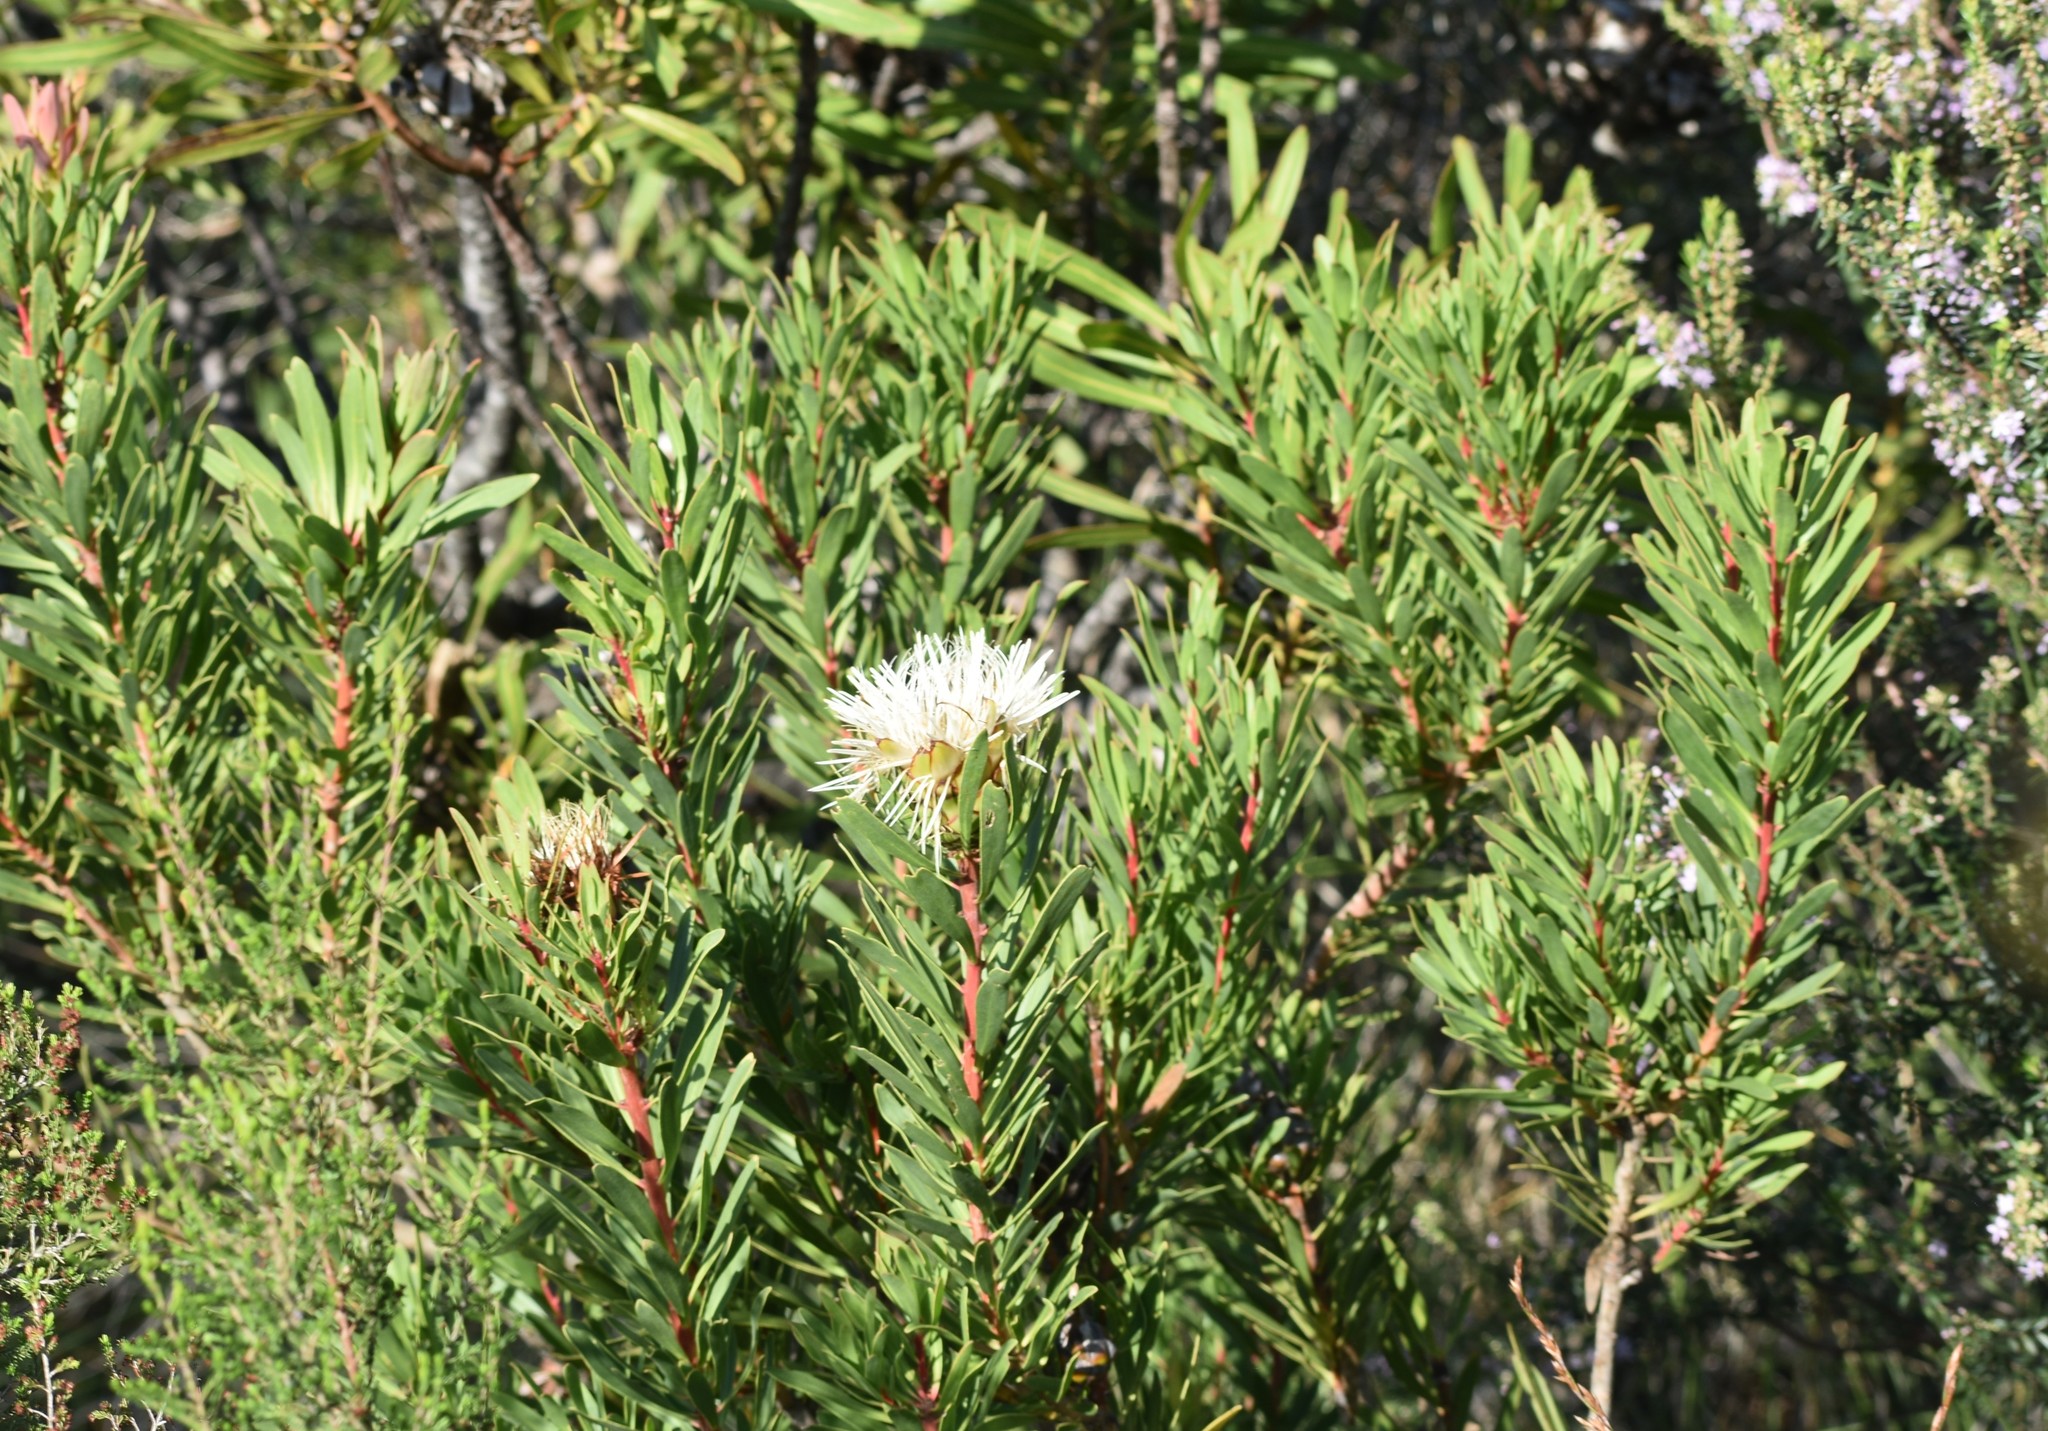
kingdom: Plantae
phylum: Tracheophyta
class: Magnoliopsida
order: Proteales
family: Proteaceae
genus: Protea
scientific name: Protea lanceolata
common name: Lance-leaved protea
